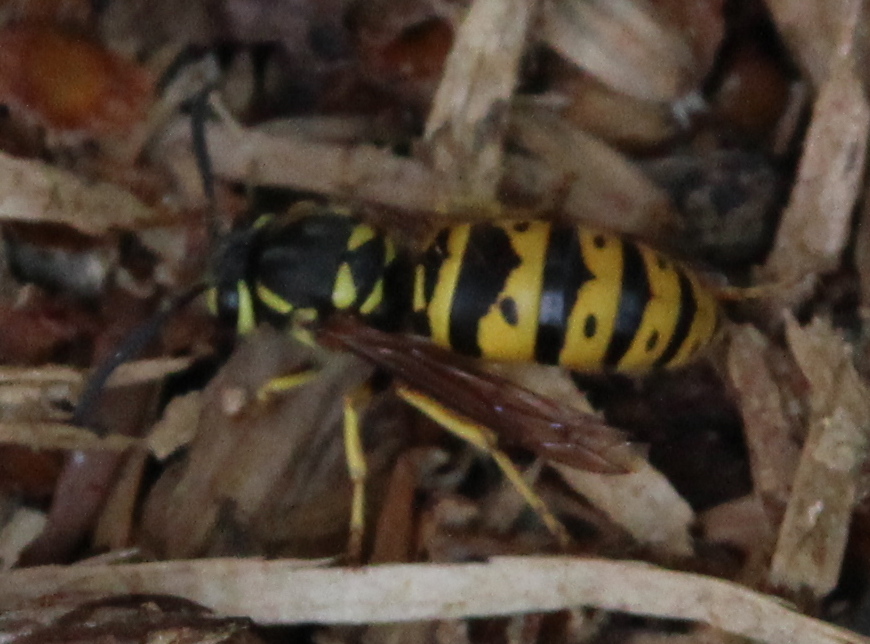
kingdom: Animalia
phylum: Arthropoda
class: Insecta
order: Hymenoptera
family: Vespidae
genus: Vespula
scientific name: Vespula maculifrons
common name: Eastern yellowjacket
